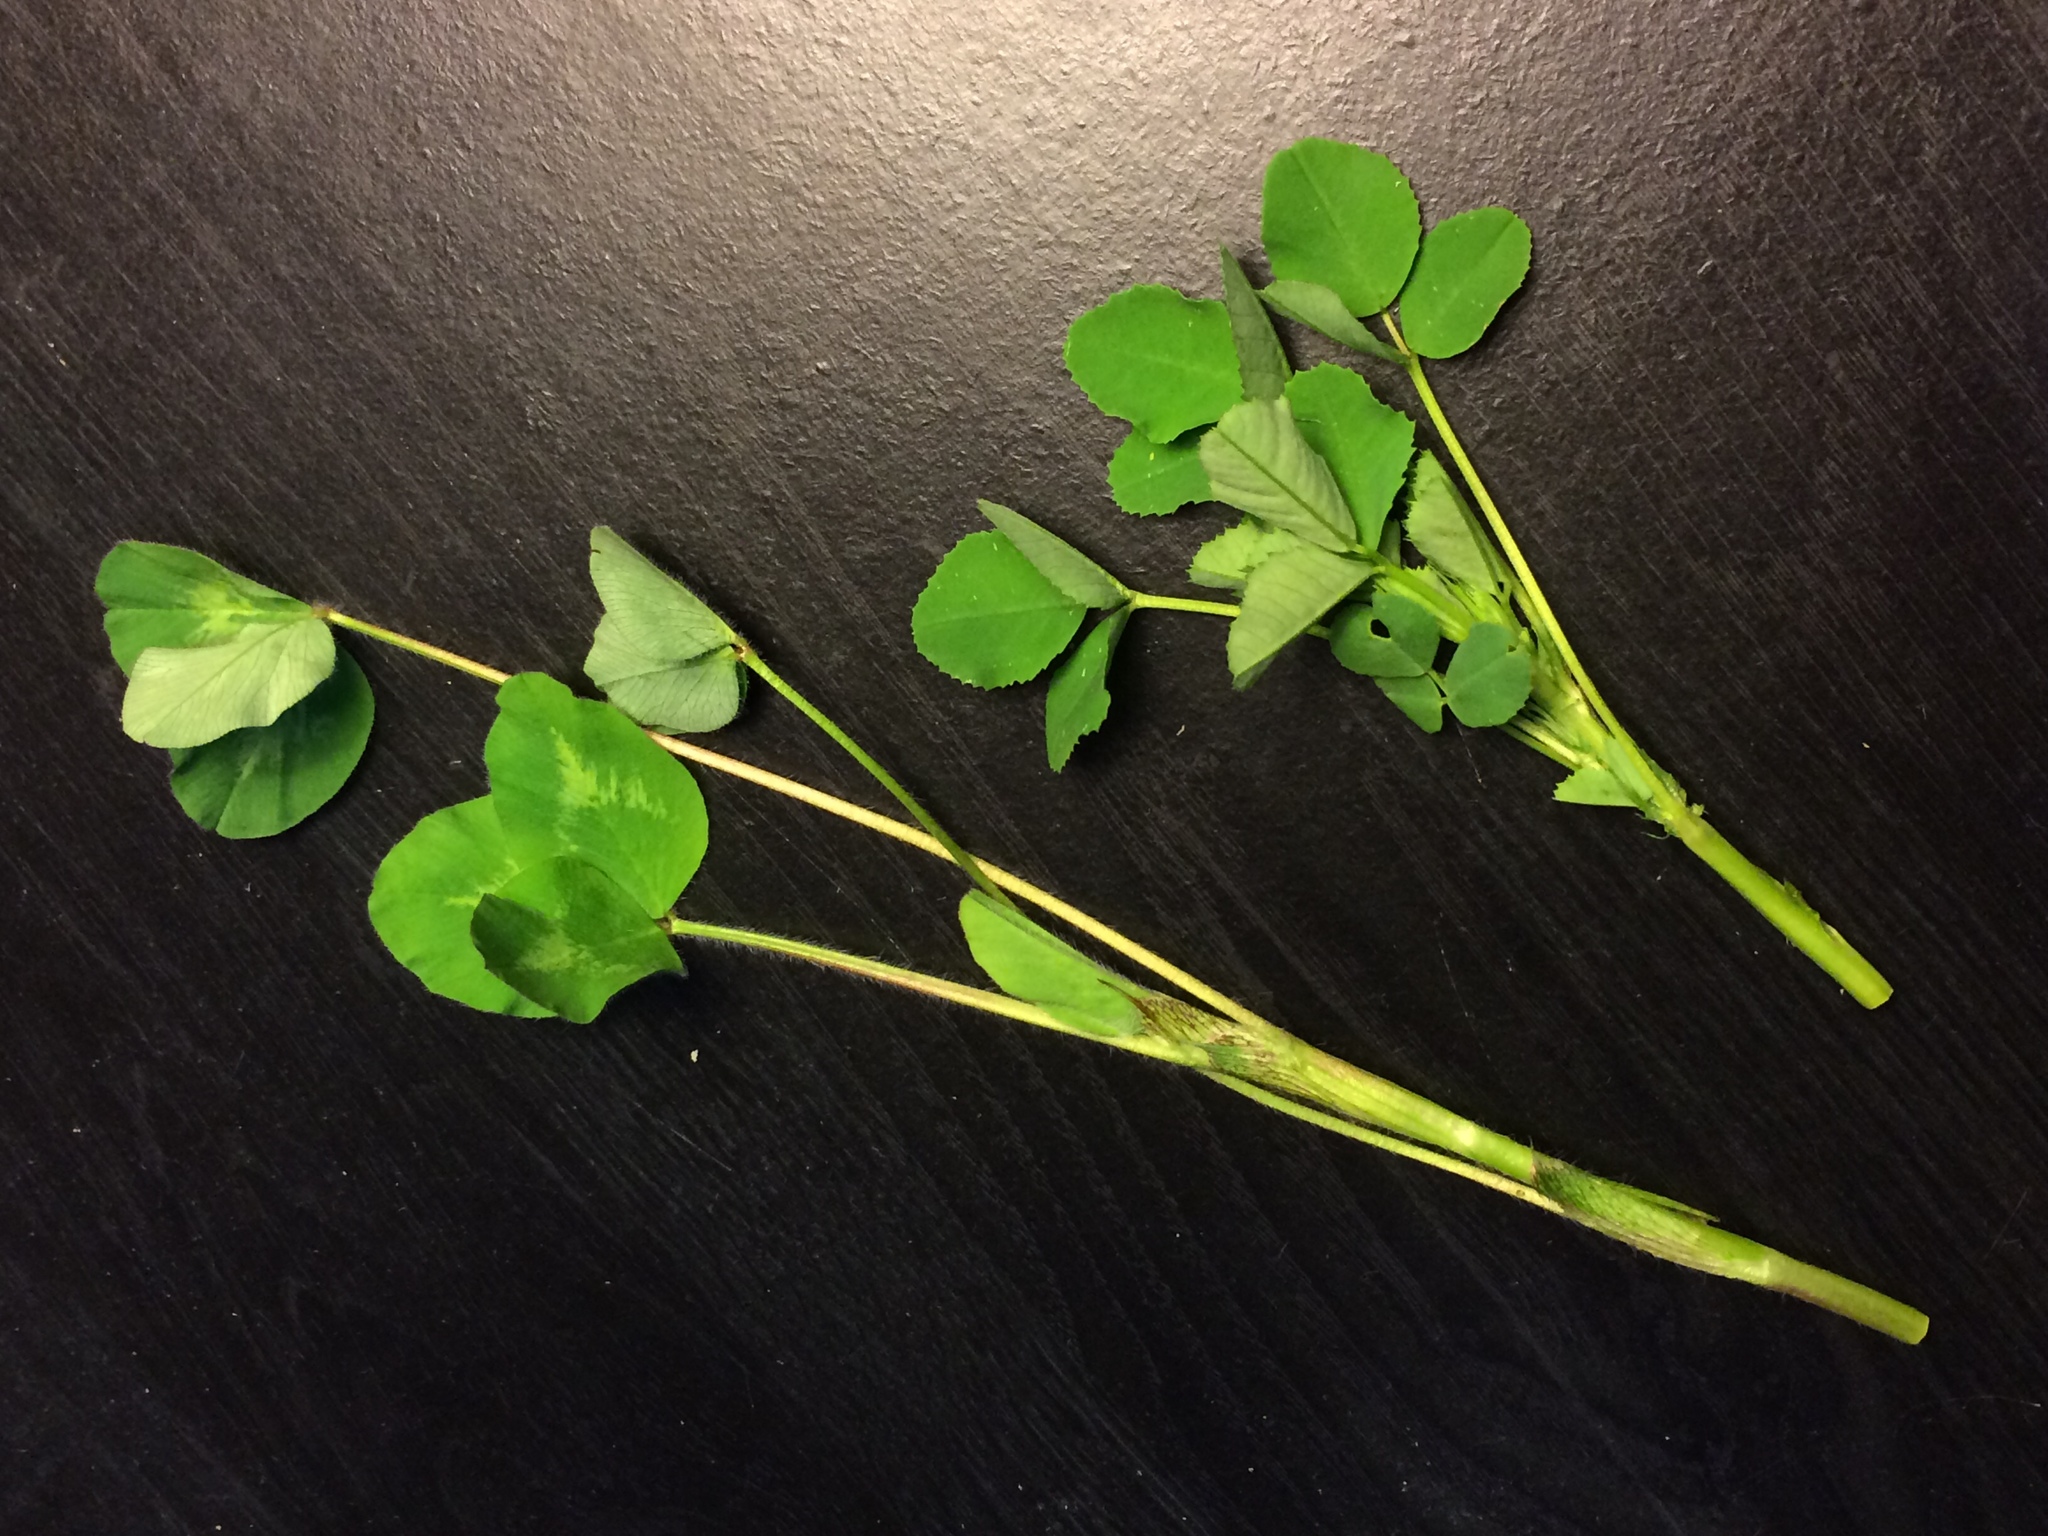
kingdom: Plantae
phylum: Tracheophyta
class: Magnoliopsida
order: Fabales
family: Fabaceae
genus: Trifolium
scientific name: Trifolium pratense
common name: Red clover
